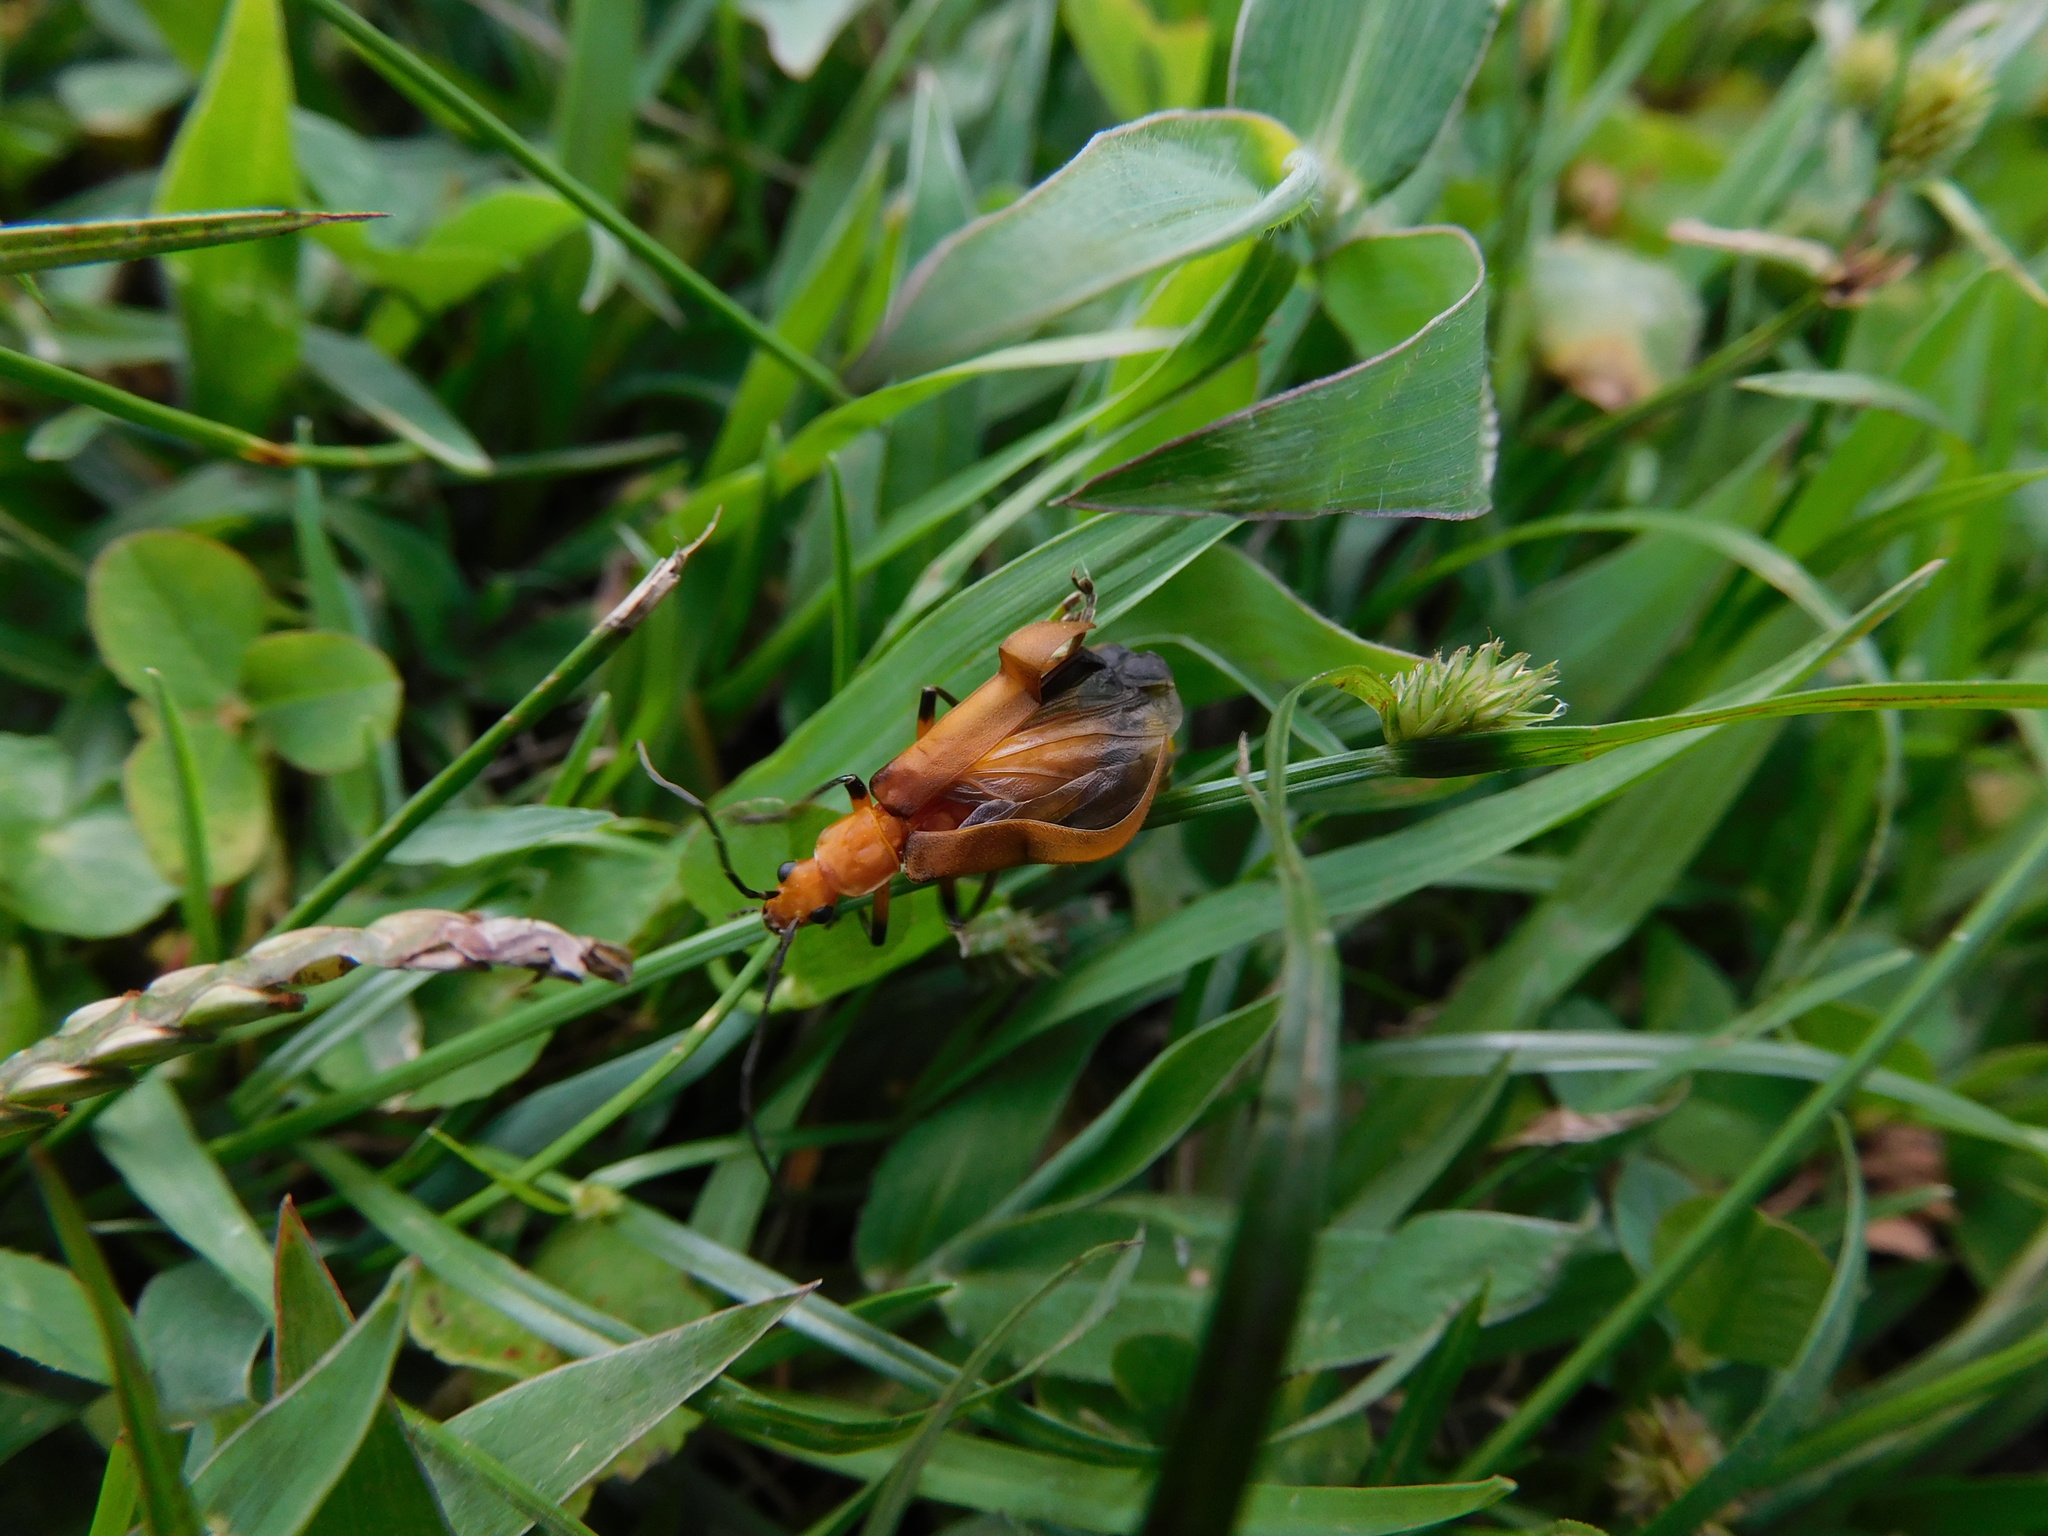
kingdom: Animalia
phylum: Arthropoda
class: Insecta
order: Coleoptera
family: Cantharidae
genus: Chauliognathus
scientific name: Chauliognathus
